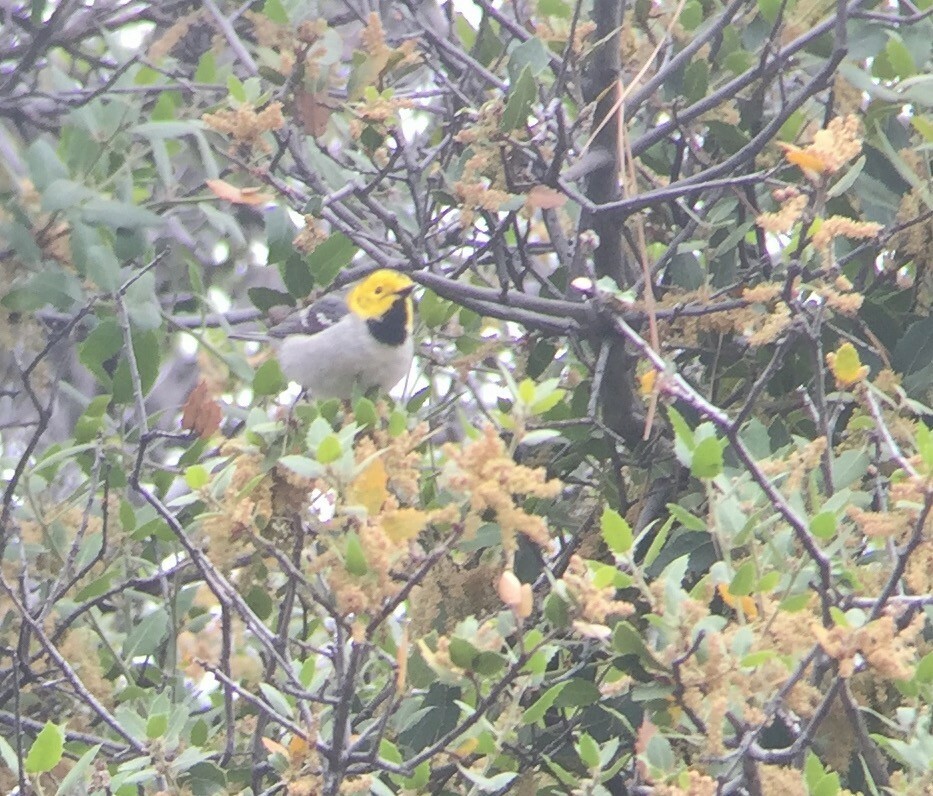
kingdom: Animalia
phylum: Chordata
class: Aves
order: Passeriformes
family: Parulidae
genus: Setophaga
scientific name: Setophaga occidentalis
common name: Hermit warbler
